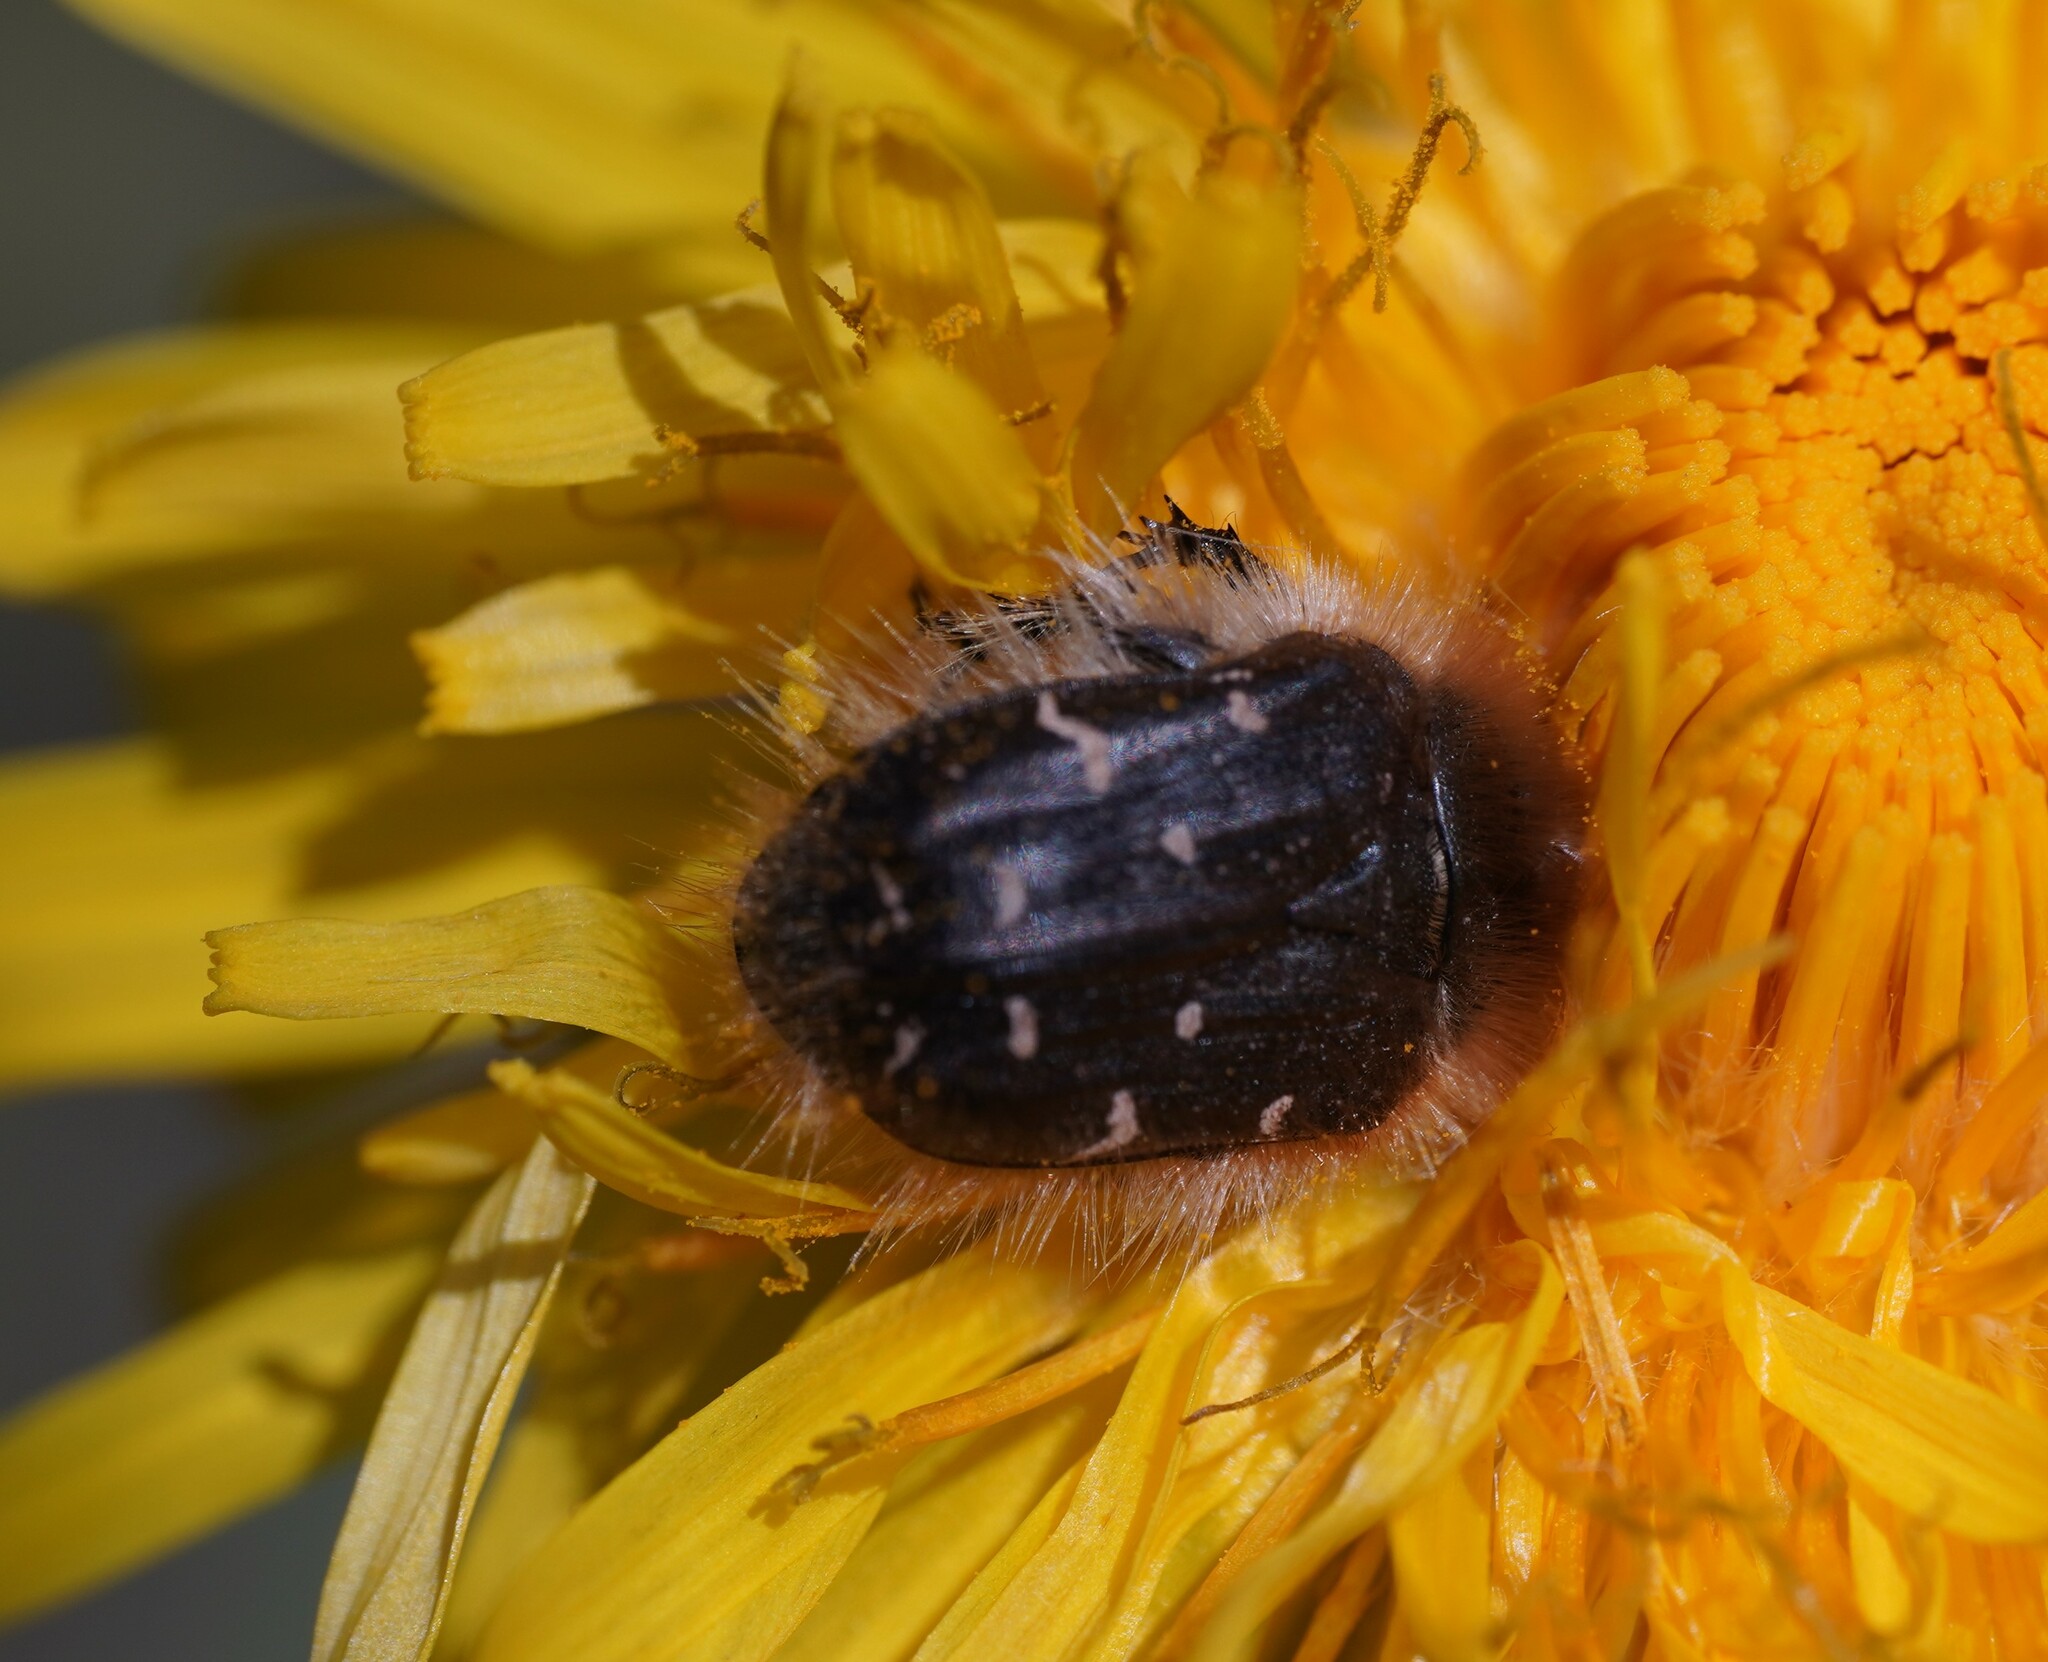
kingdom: Animalia
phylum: Arthropoda
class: Insecta
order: Coleoptera
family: Scarabaeidae
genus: Tropinota
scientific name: Tropinota hirta
